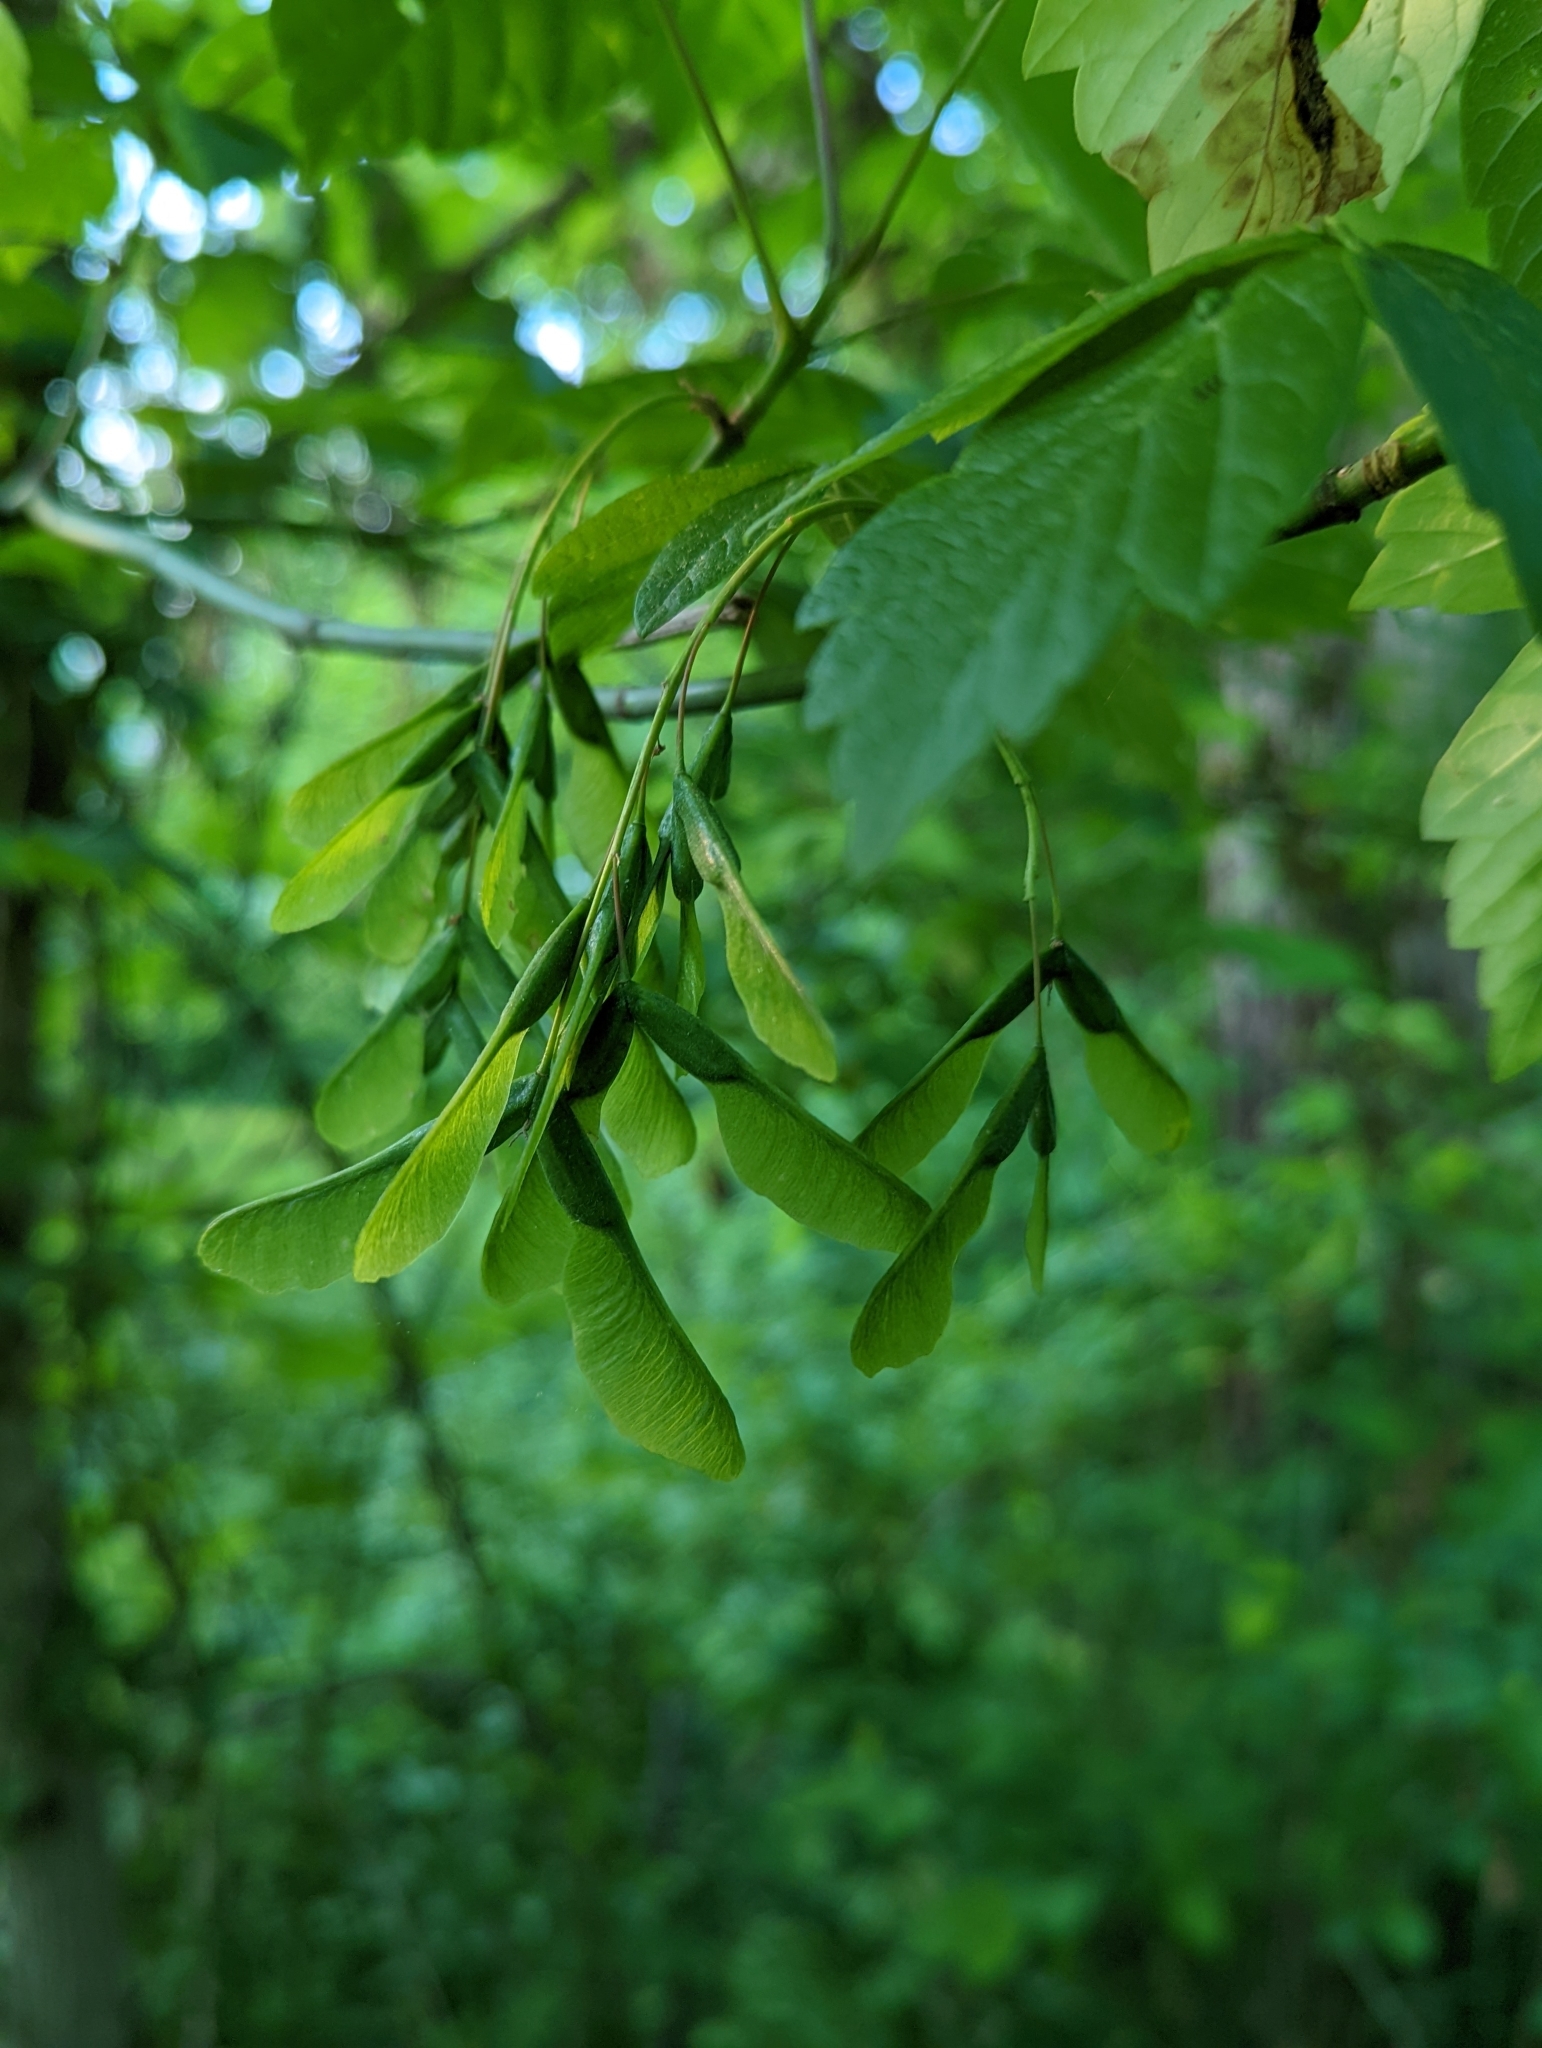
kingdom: Plantae
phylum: Tracheophyta
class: Magnoliopsida
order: Sapindales
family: Sapindaceae
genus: Acer
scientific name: Acer negundo
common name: Ashleaf maple
